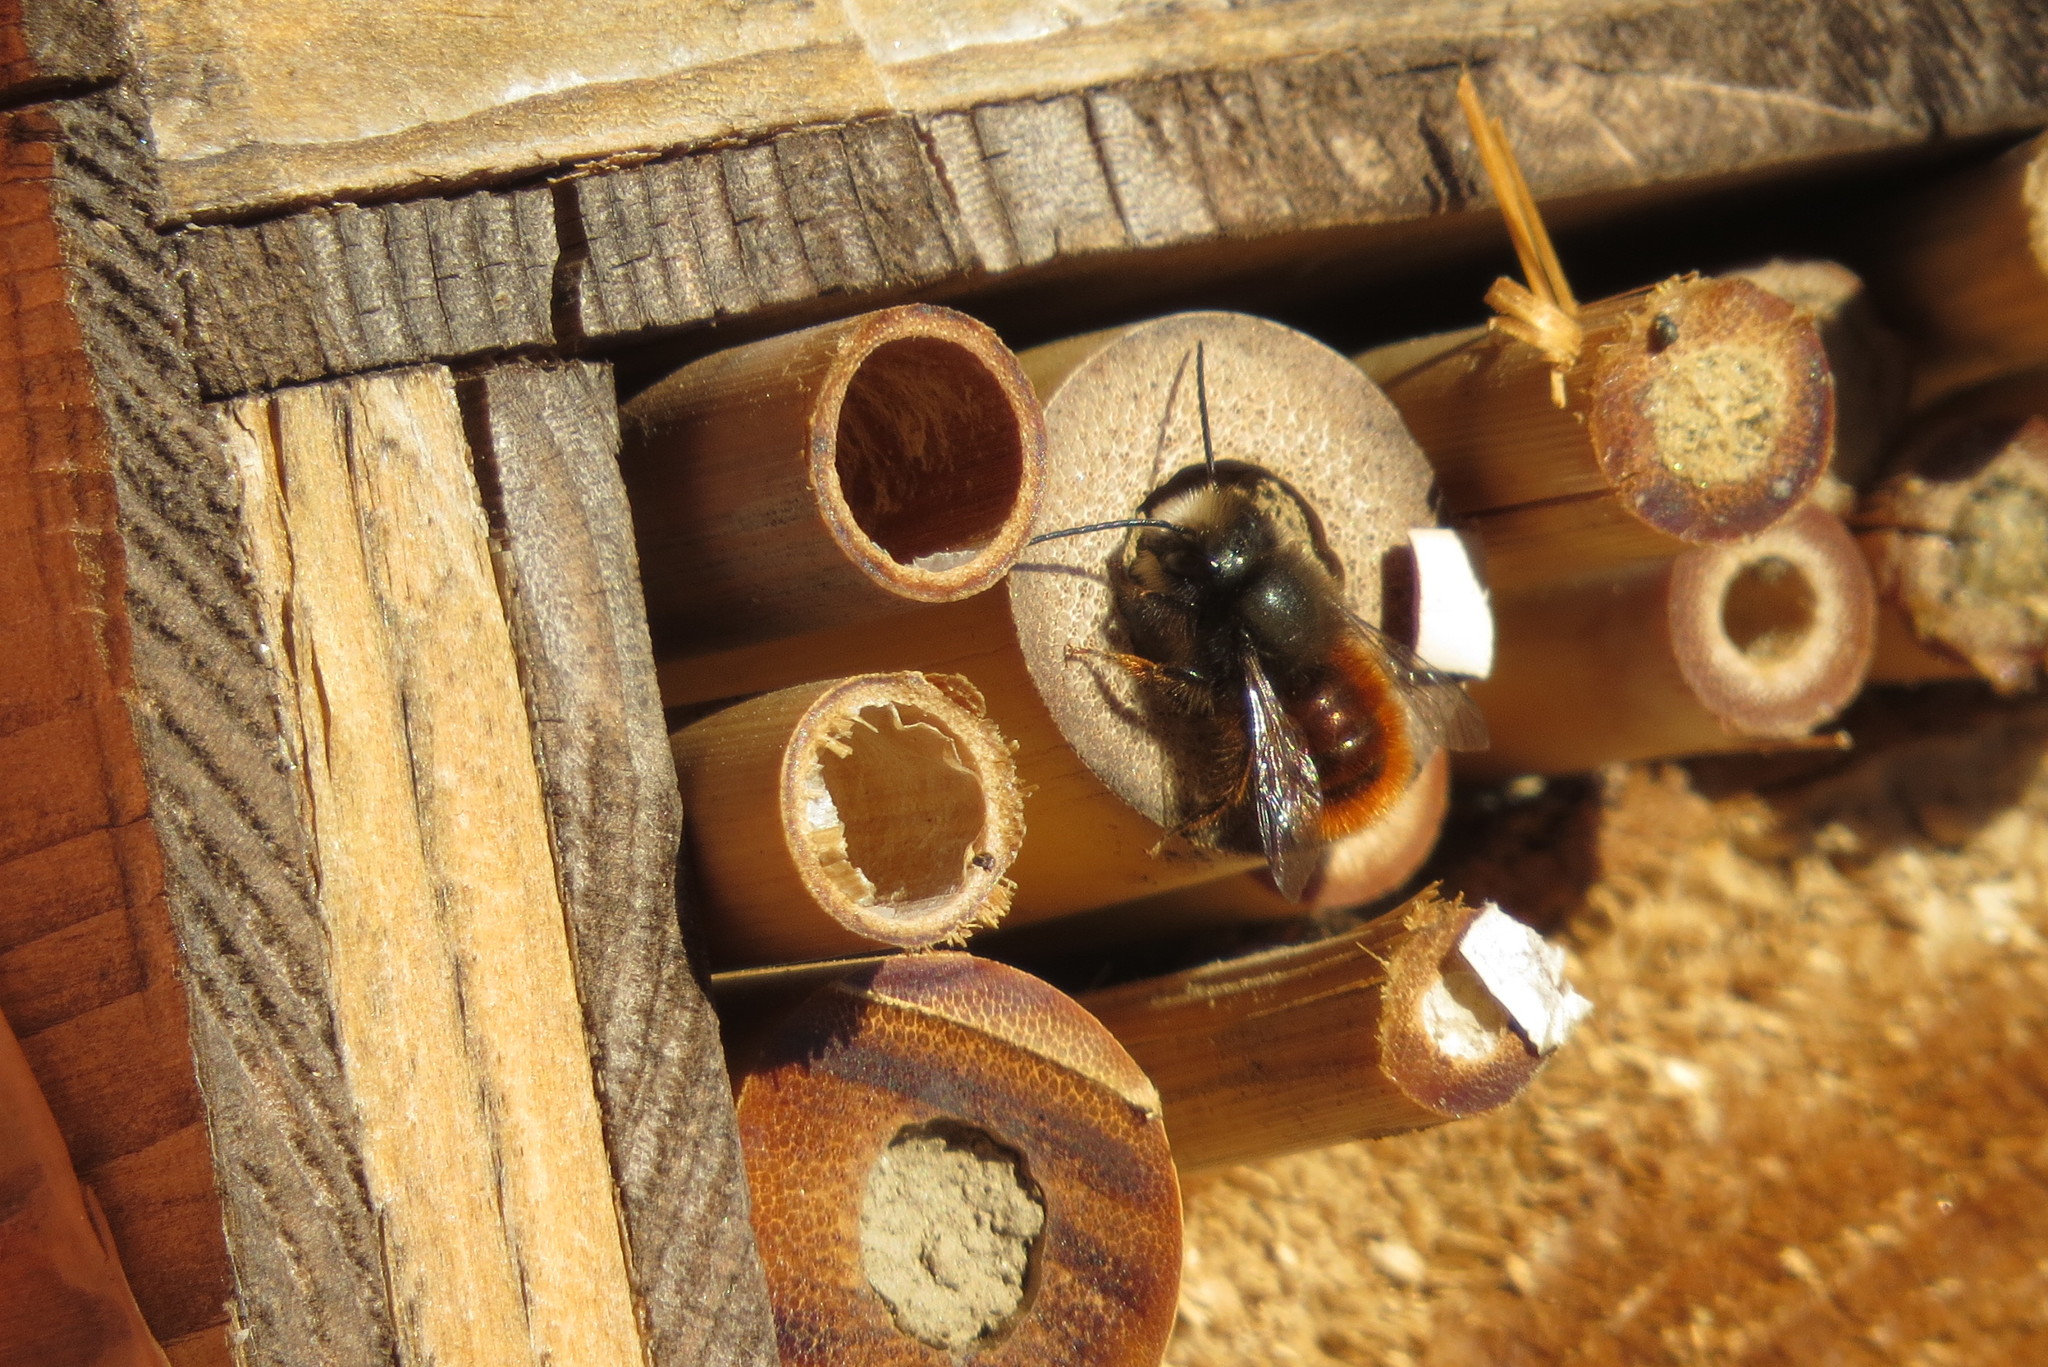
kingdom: Animalia
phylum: Arthropoda
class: Insecta
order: Hymenoptera
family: Megachilidae
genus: Osmia
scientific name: Osmia cornuta
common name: Mason bee
